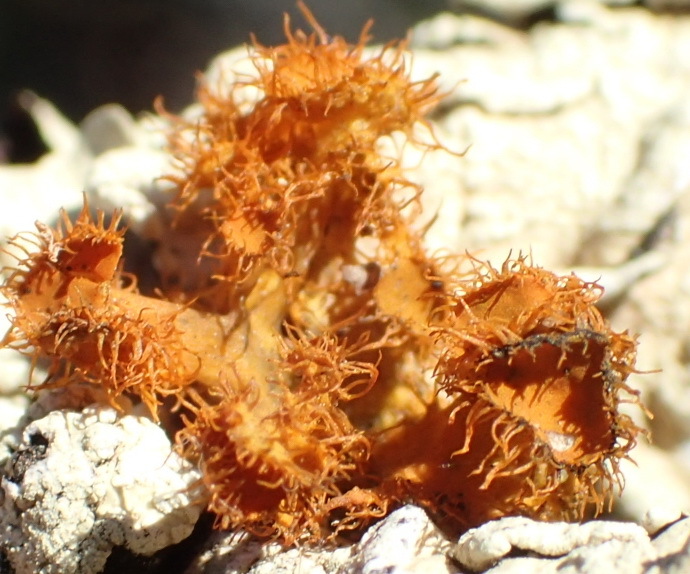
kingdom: Fungi
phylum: Ascomycota
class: Lecanoromycetes
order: Teloschistales
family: Teloschistaceae
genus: Niorma
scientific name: Niorma chrysophthalma
